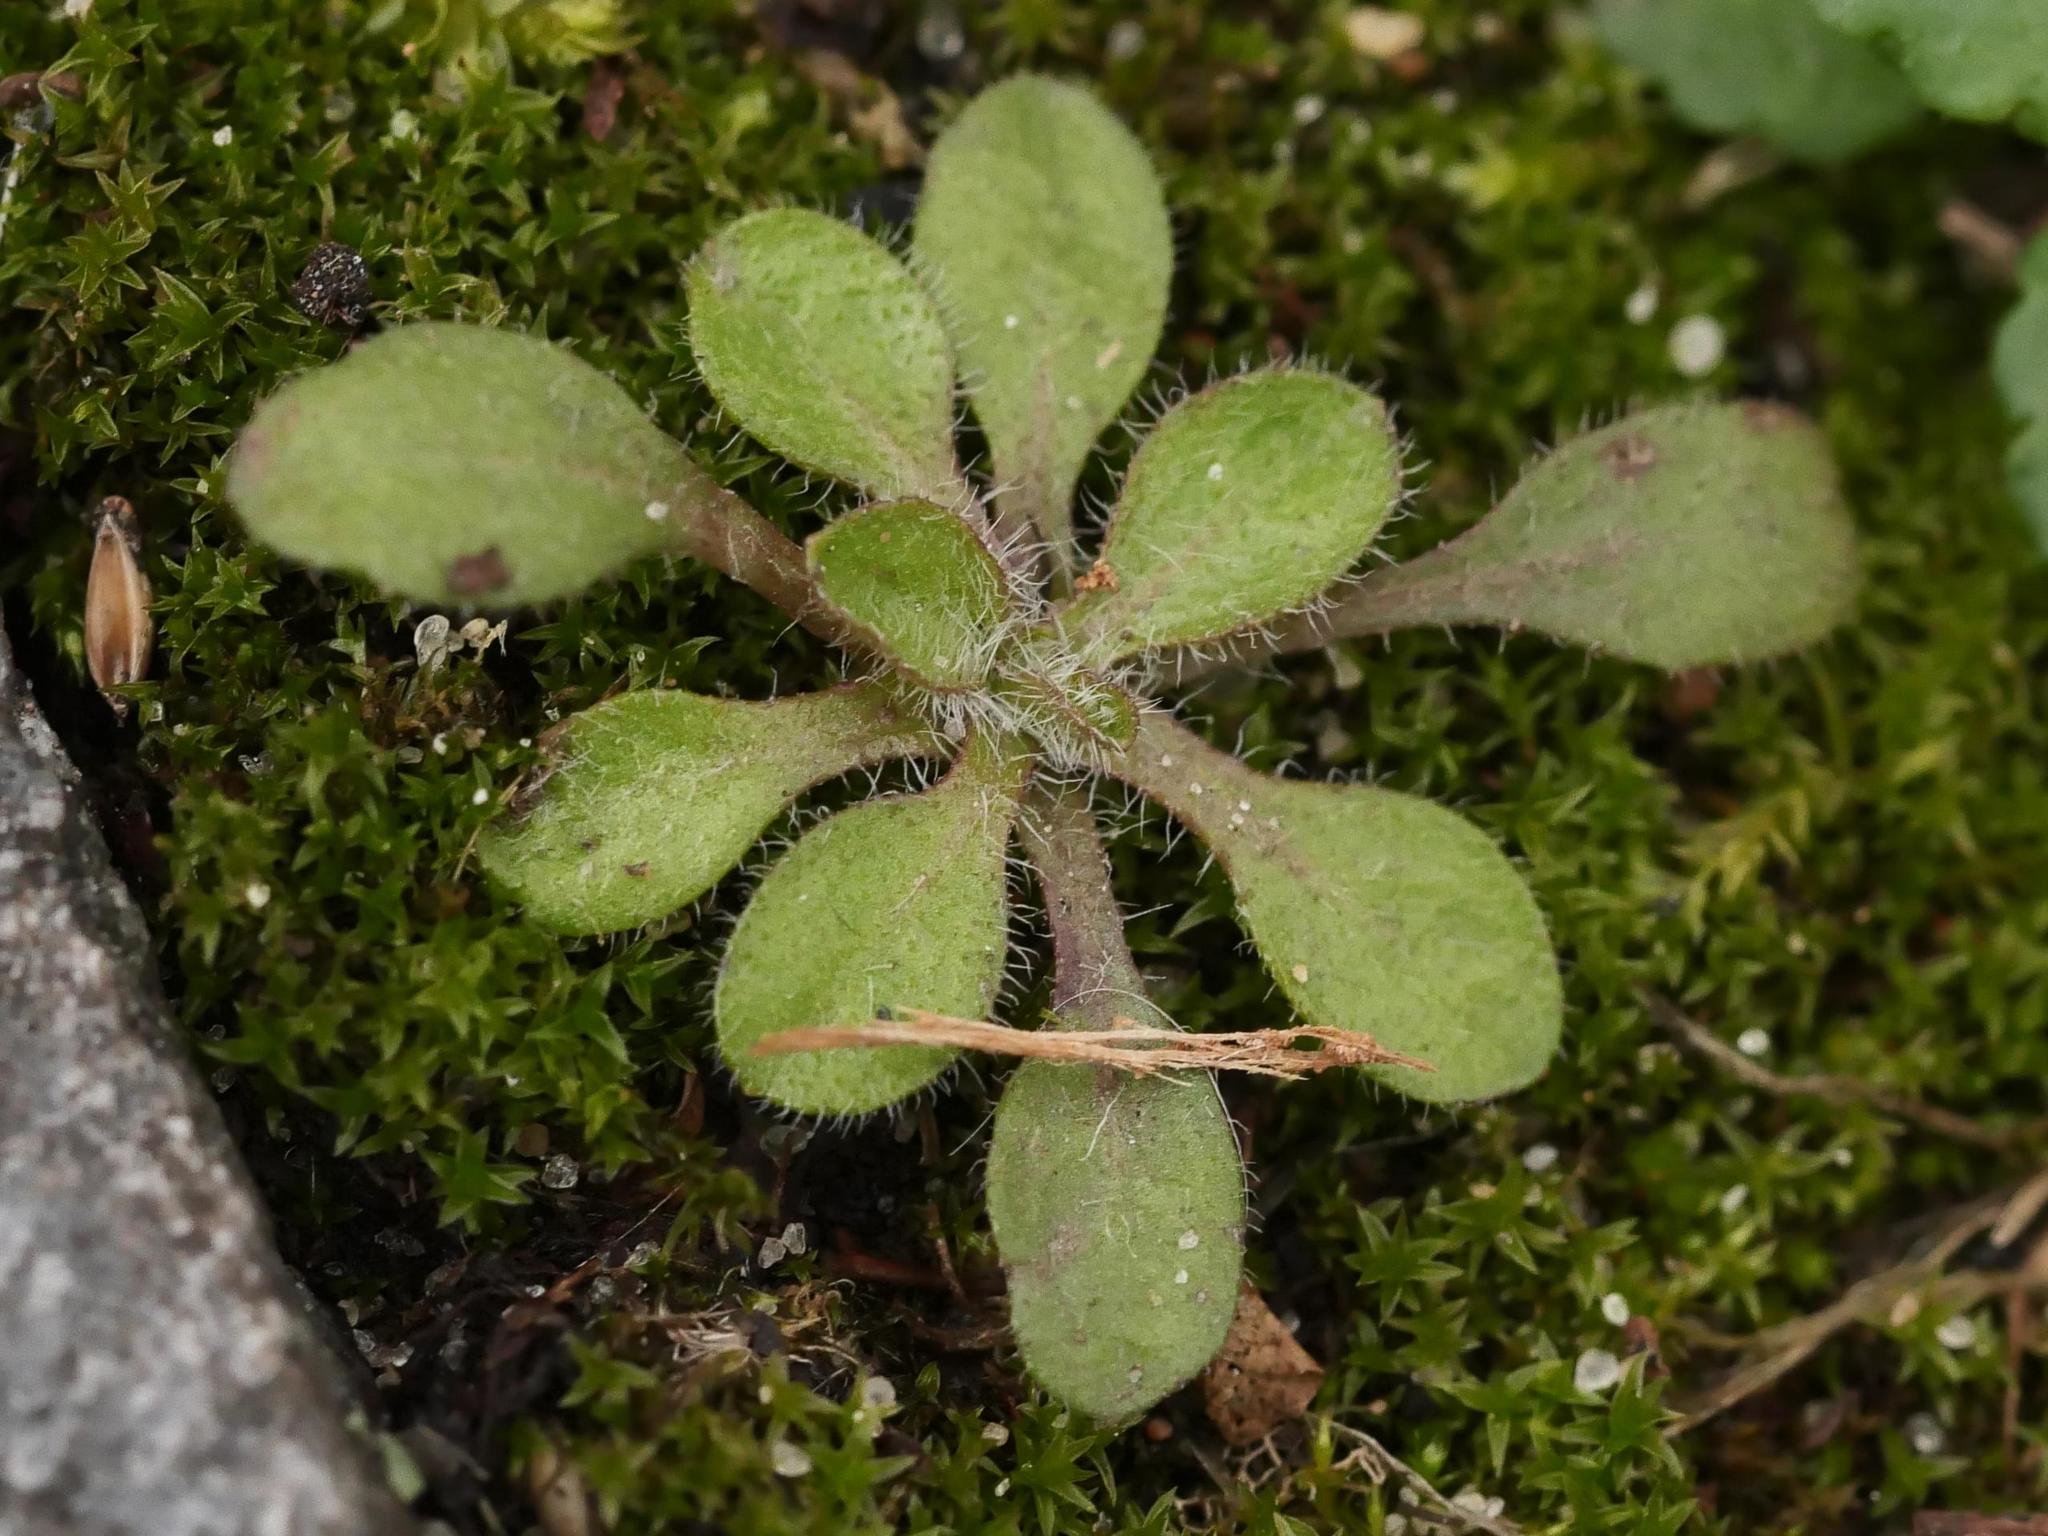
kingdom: Plantae
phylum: Tracheophyta
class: Magnoliopsida
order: Brassicales
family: Brassicaceae
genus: Arabidopsis
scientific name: Arabidopsis thaliana
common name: Thale cress
